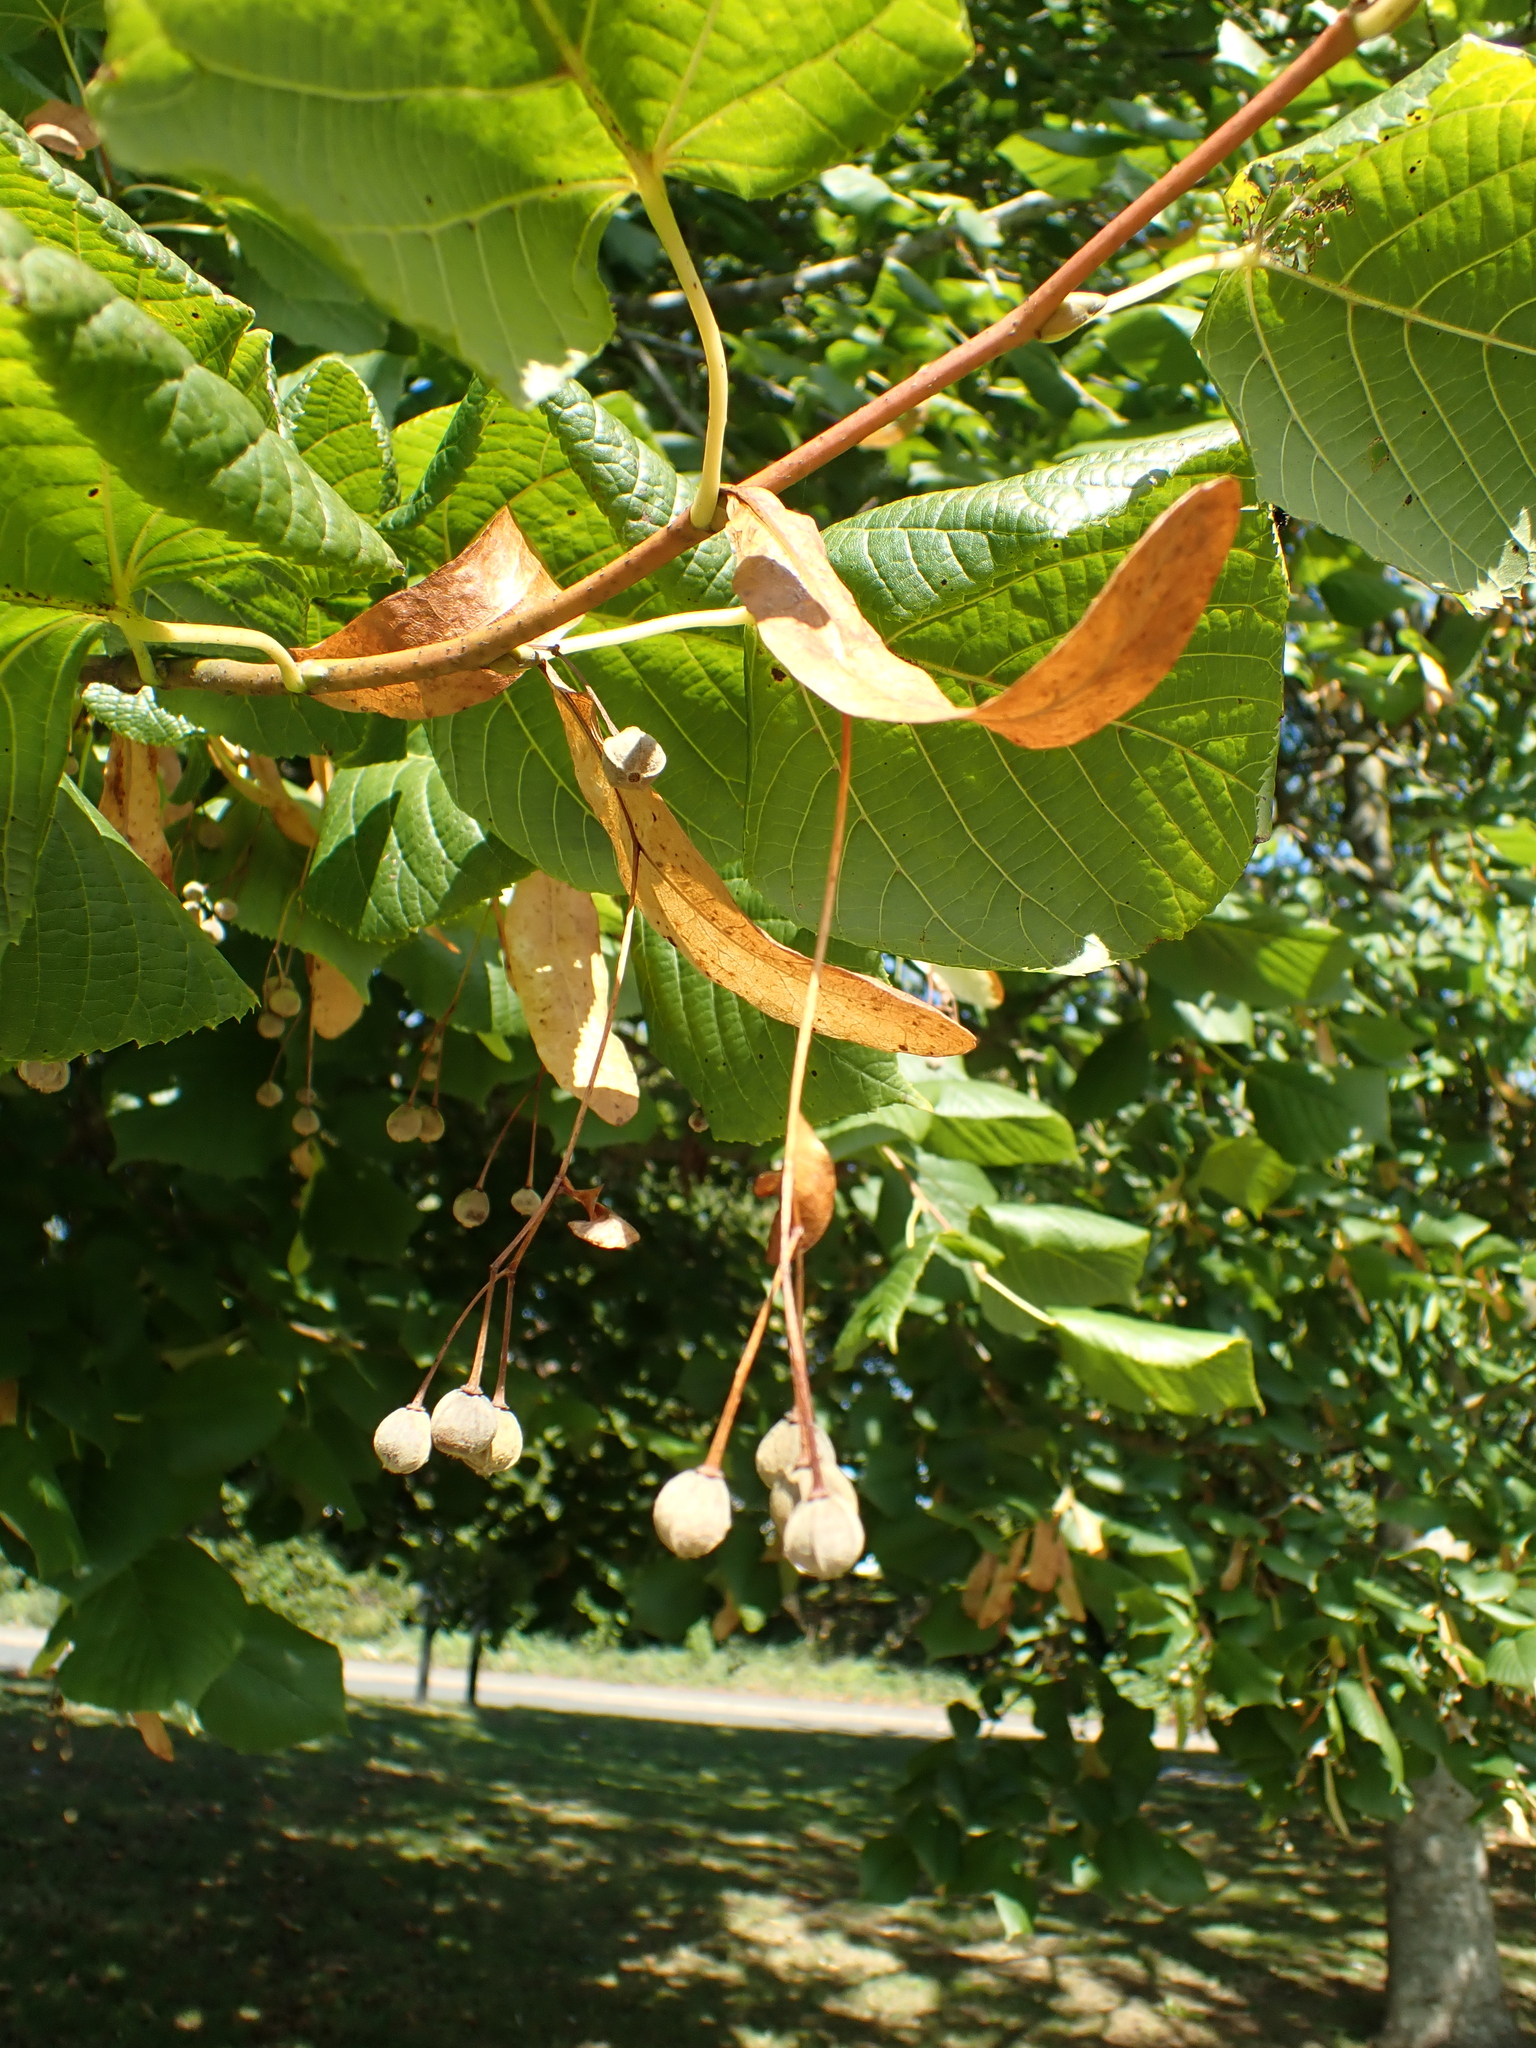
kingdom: Plantae
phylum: Tracheophyta
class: Magnoliopsida
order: Malvales
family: Malvaceae
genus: Tilia
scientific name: Tilia europaea
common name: European linden
